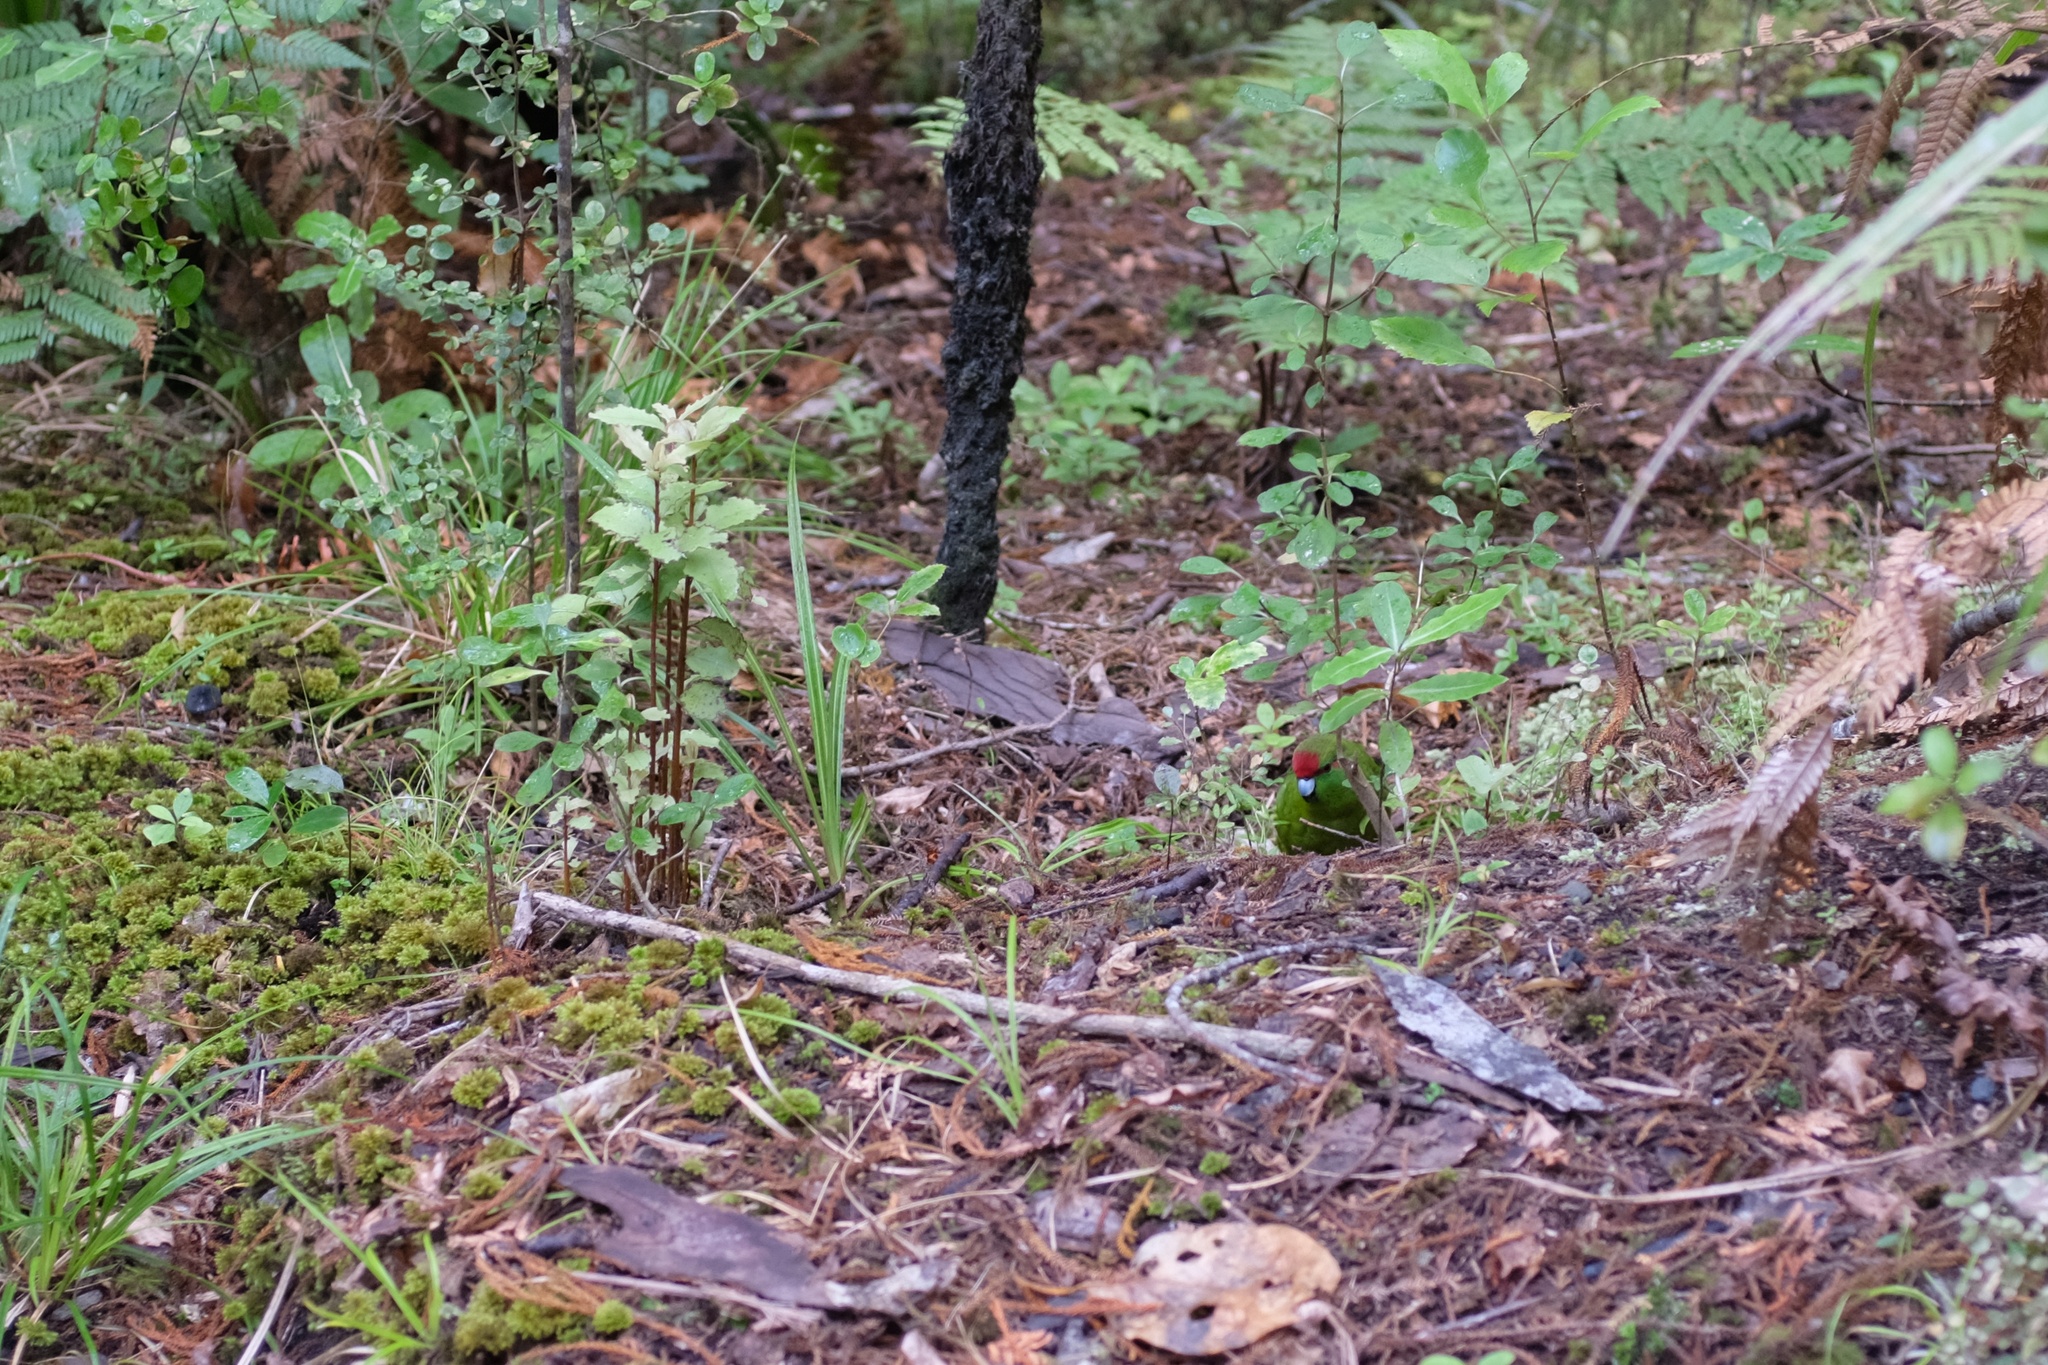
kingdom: Animalia
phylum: Chordata
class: Aves
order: Psittaciformes
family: Psittacidae
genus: Cyanoramphus
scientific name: Cyanoramphus novaezelandiae
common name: Red-fronted parakeet
